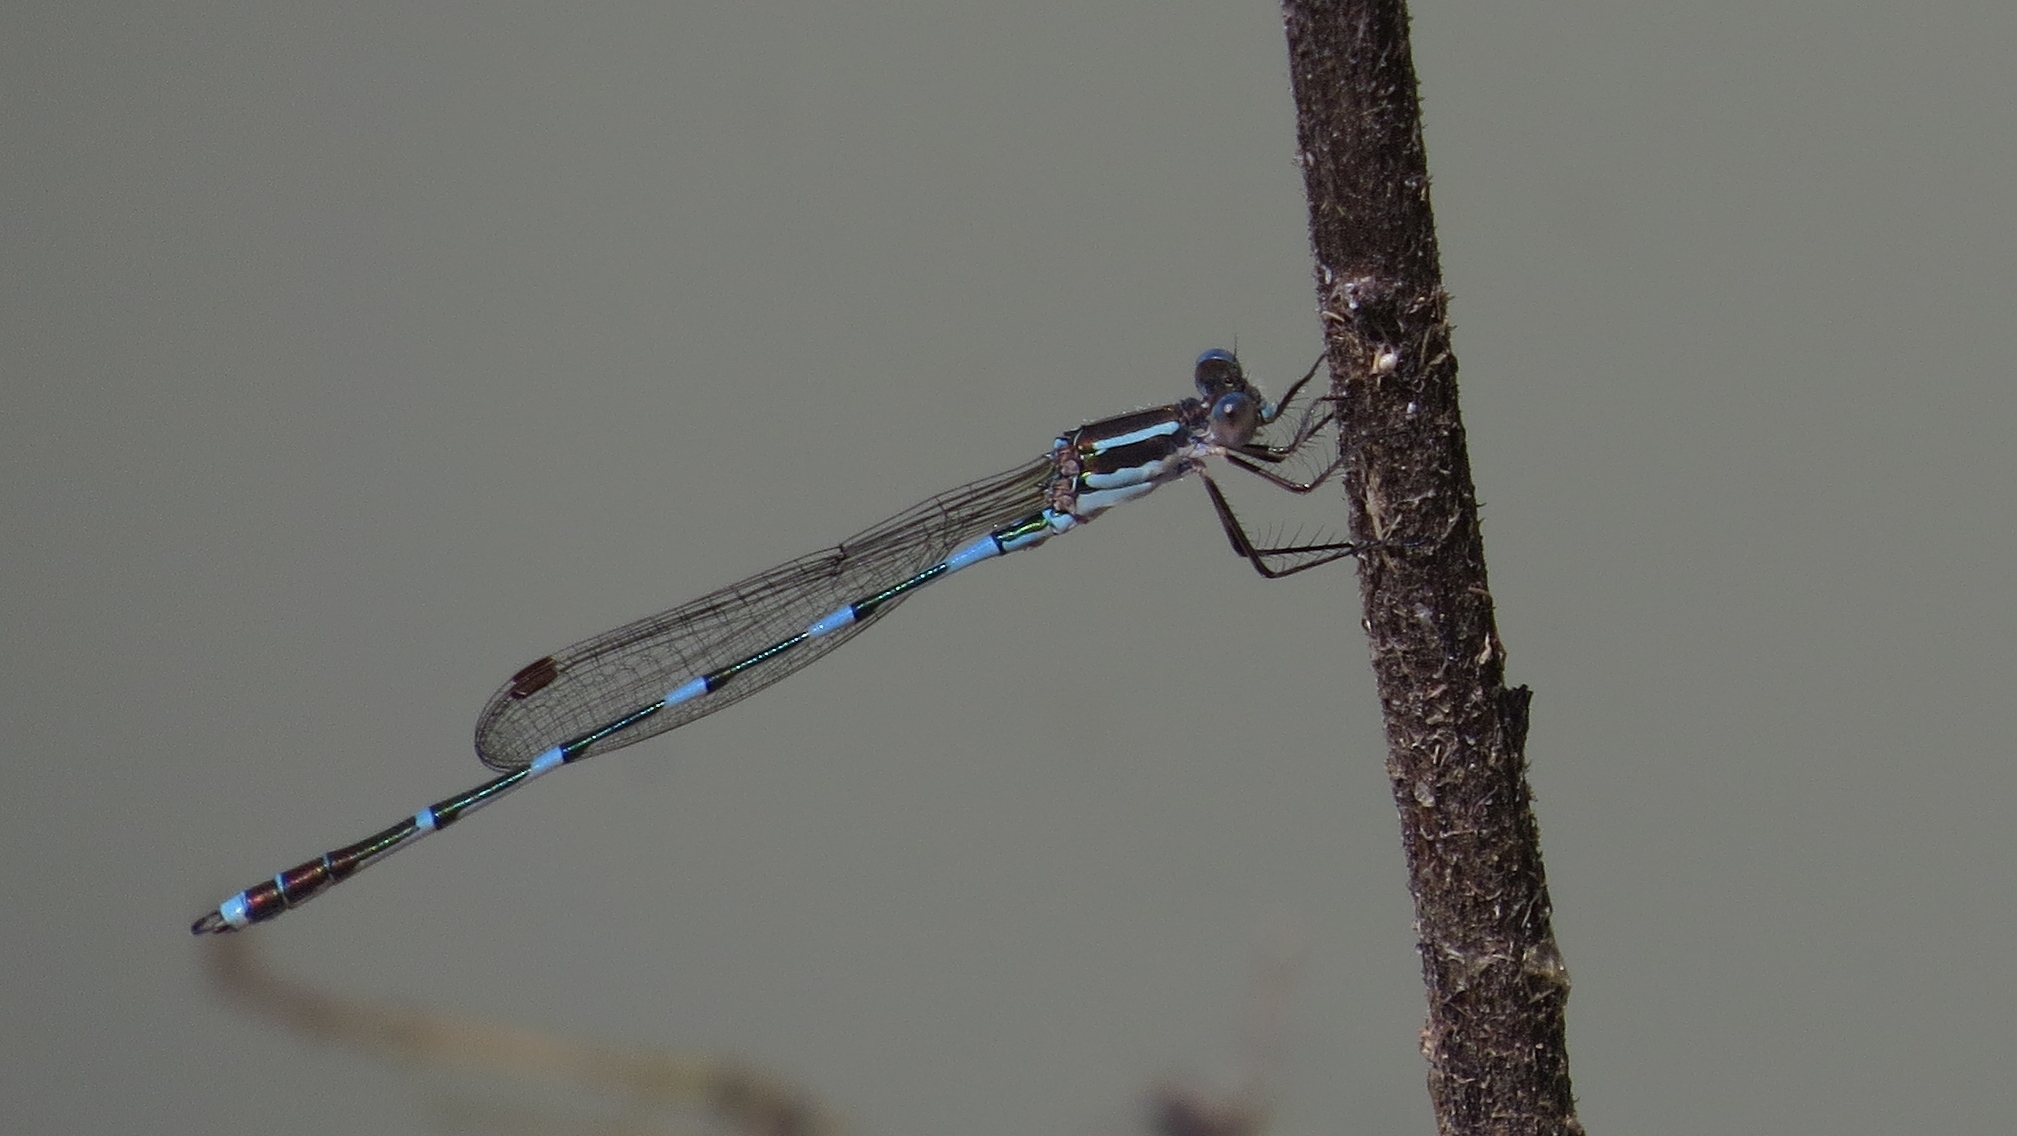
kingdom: Animalia
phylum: Arthropoda
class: Insecta
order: Odonata
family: Lestidae
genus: Austrolestes
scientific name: Austrolestes leda
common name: Wandering ringtail
